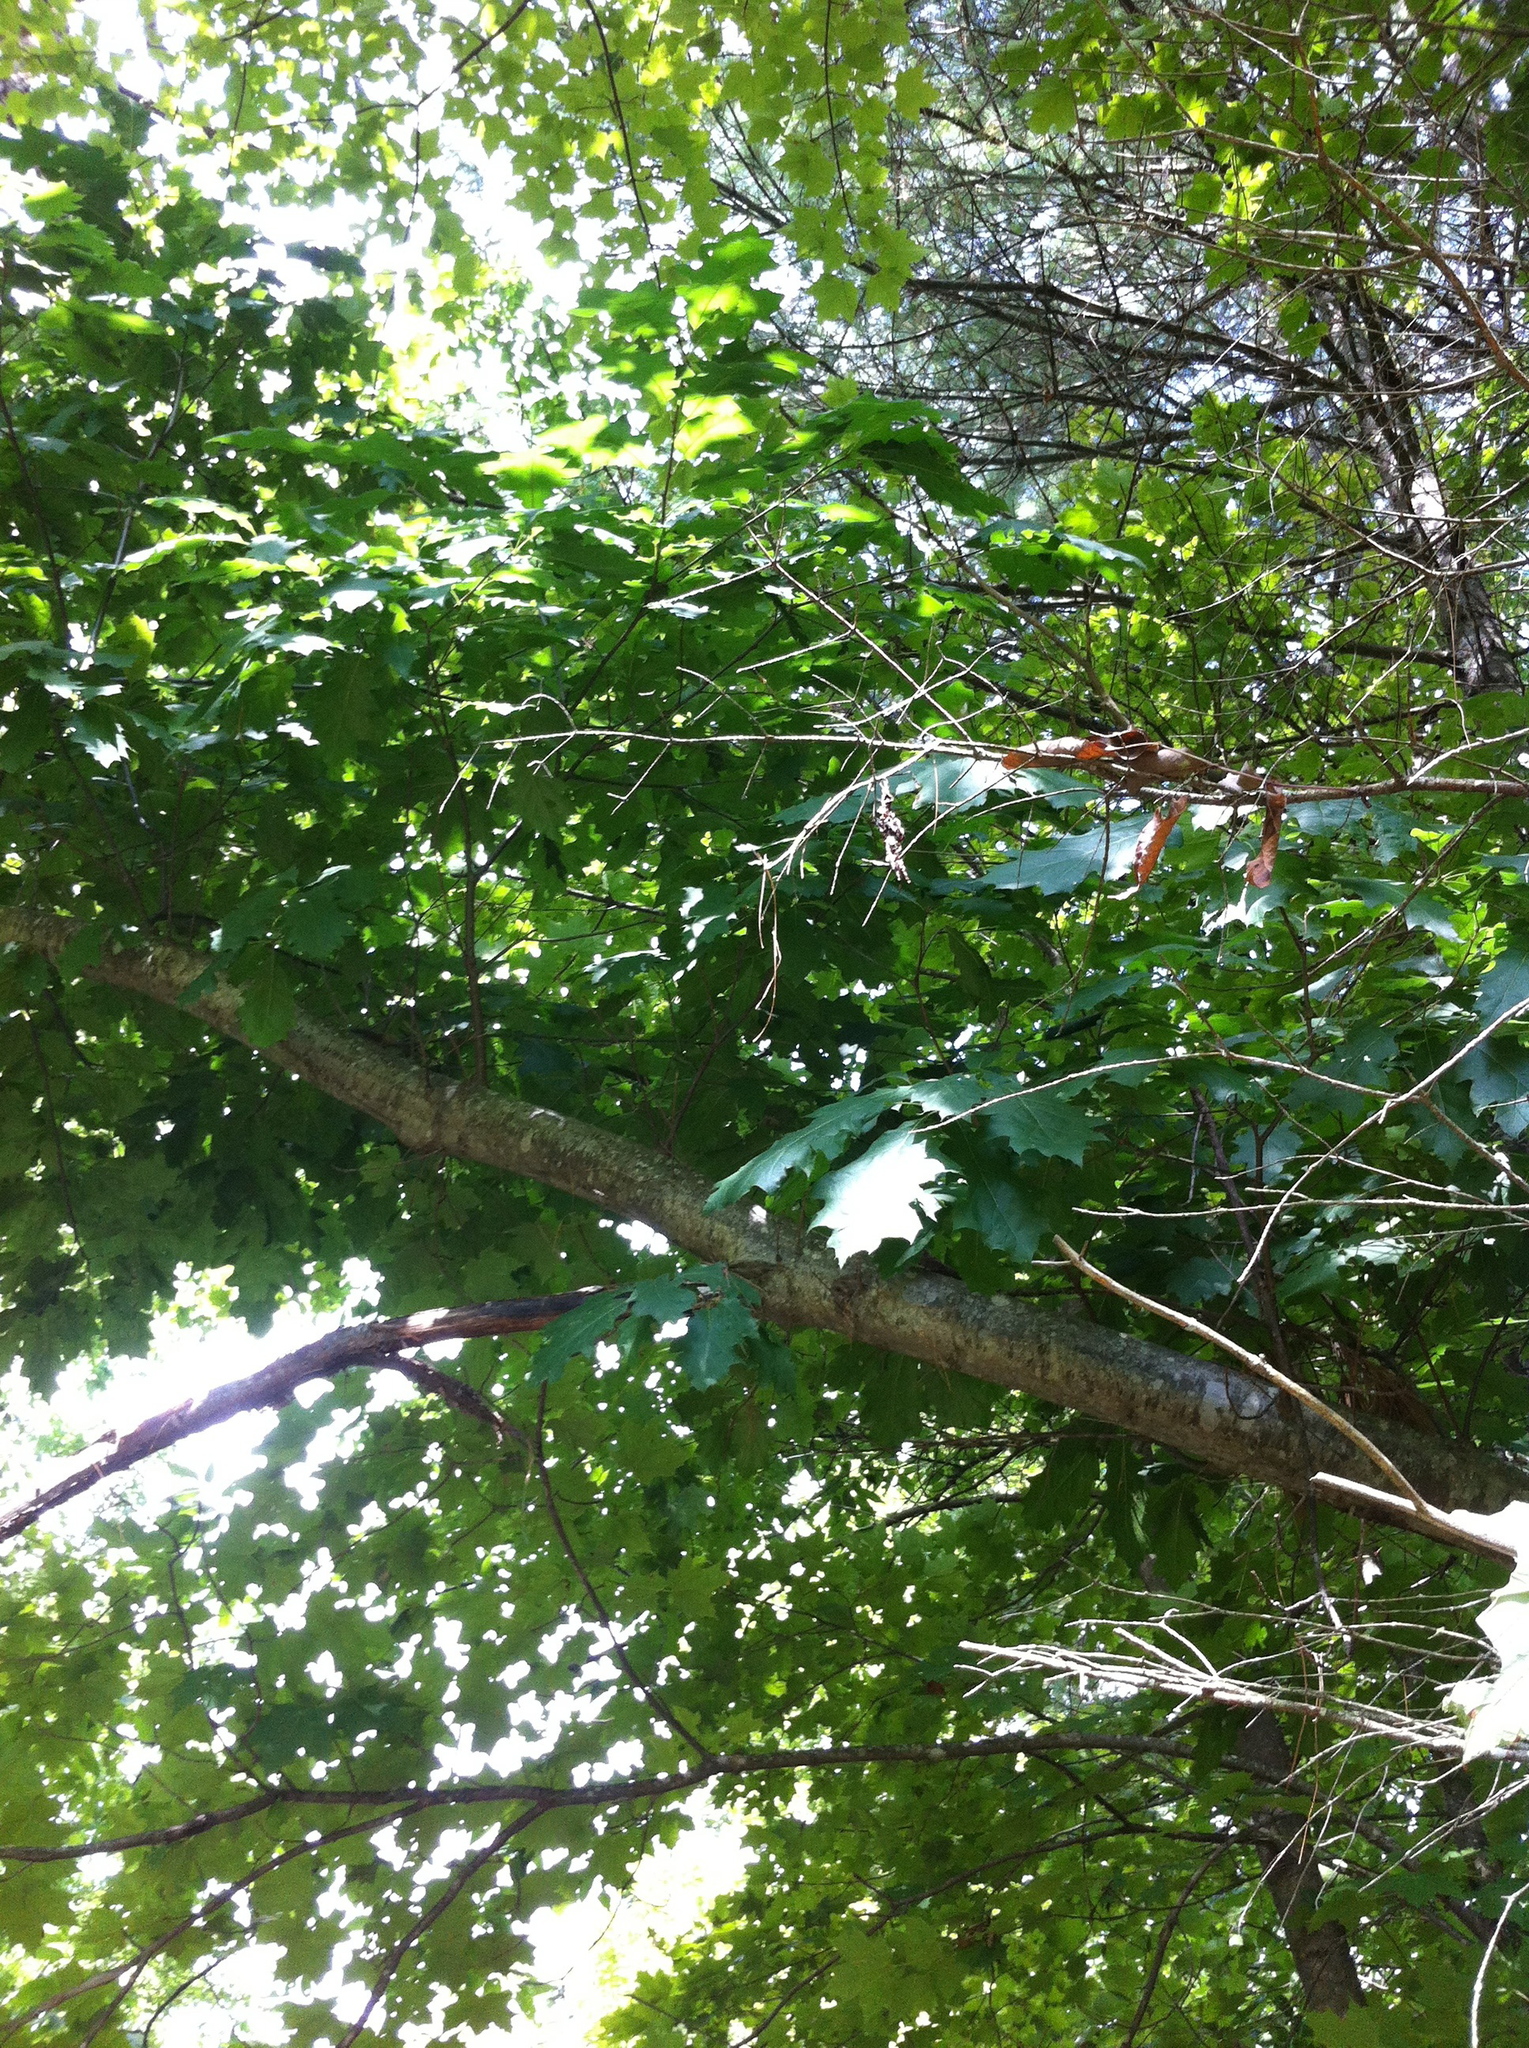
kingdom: Plantae
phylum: Tracheophyta
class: Magnoliopsida
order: Fagales
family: Fagaceae
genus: Quercus
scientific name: Quercus rubra
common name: Red oak
